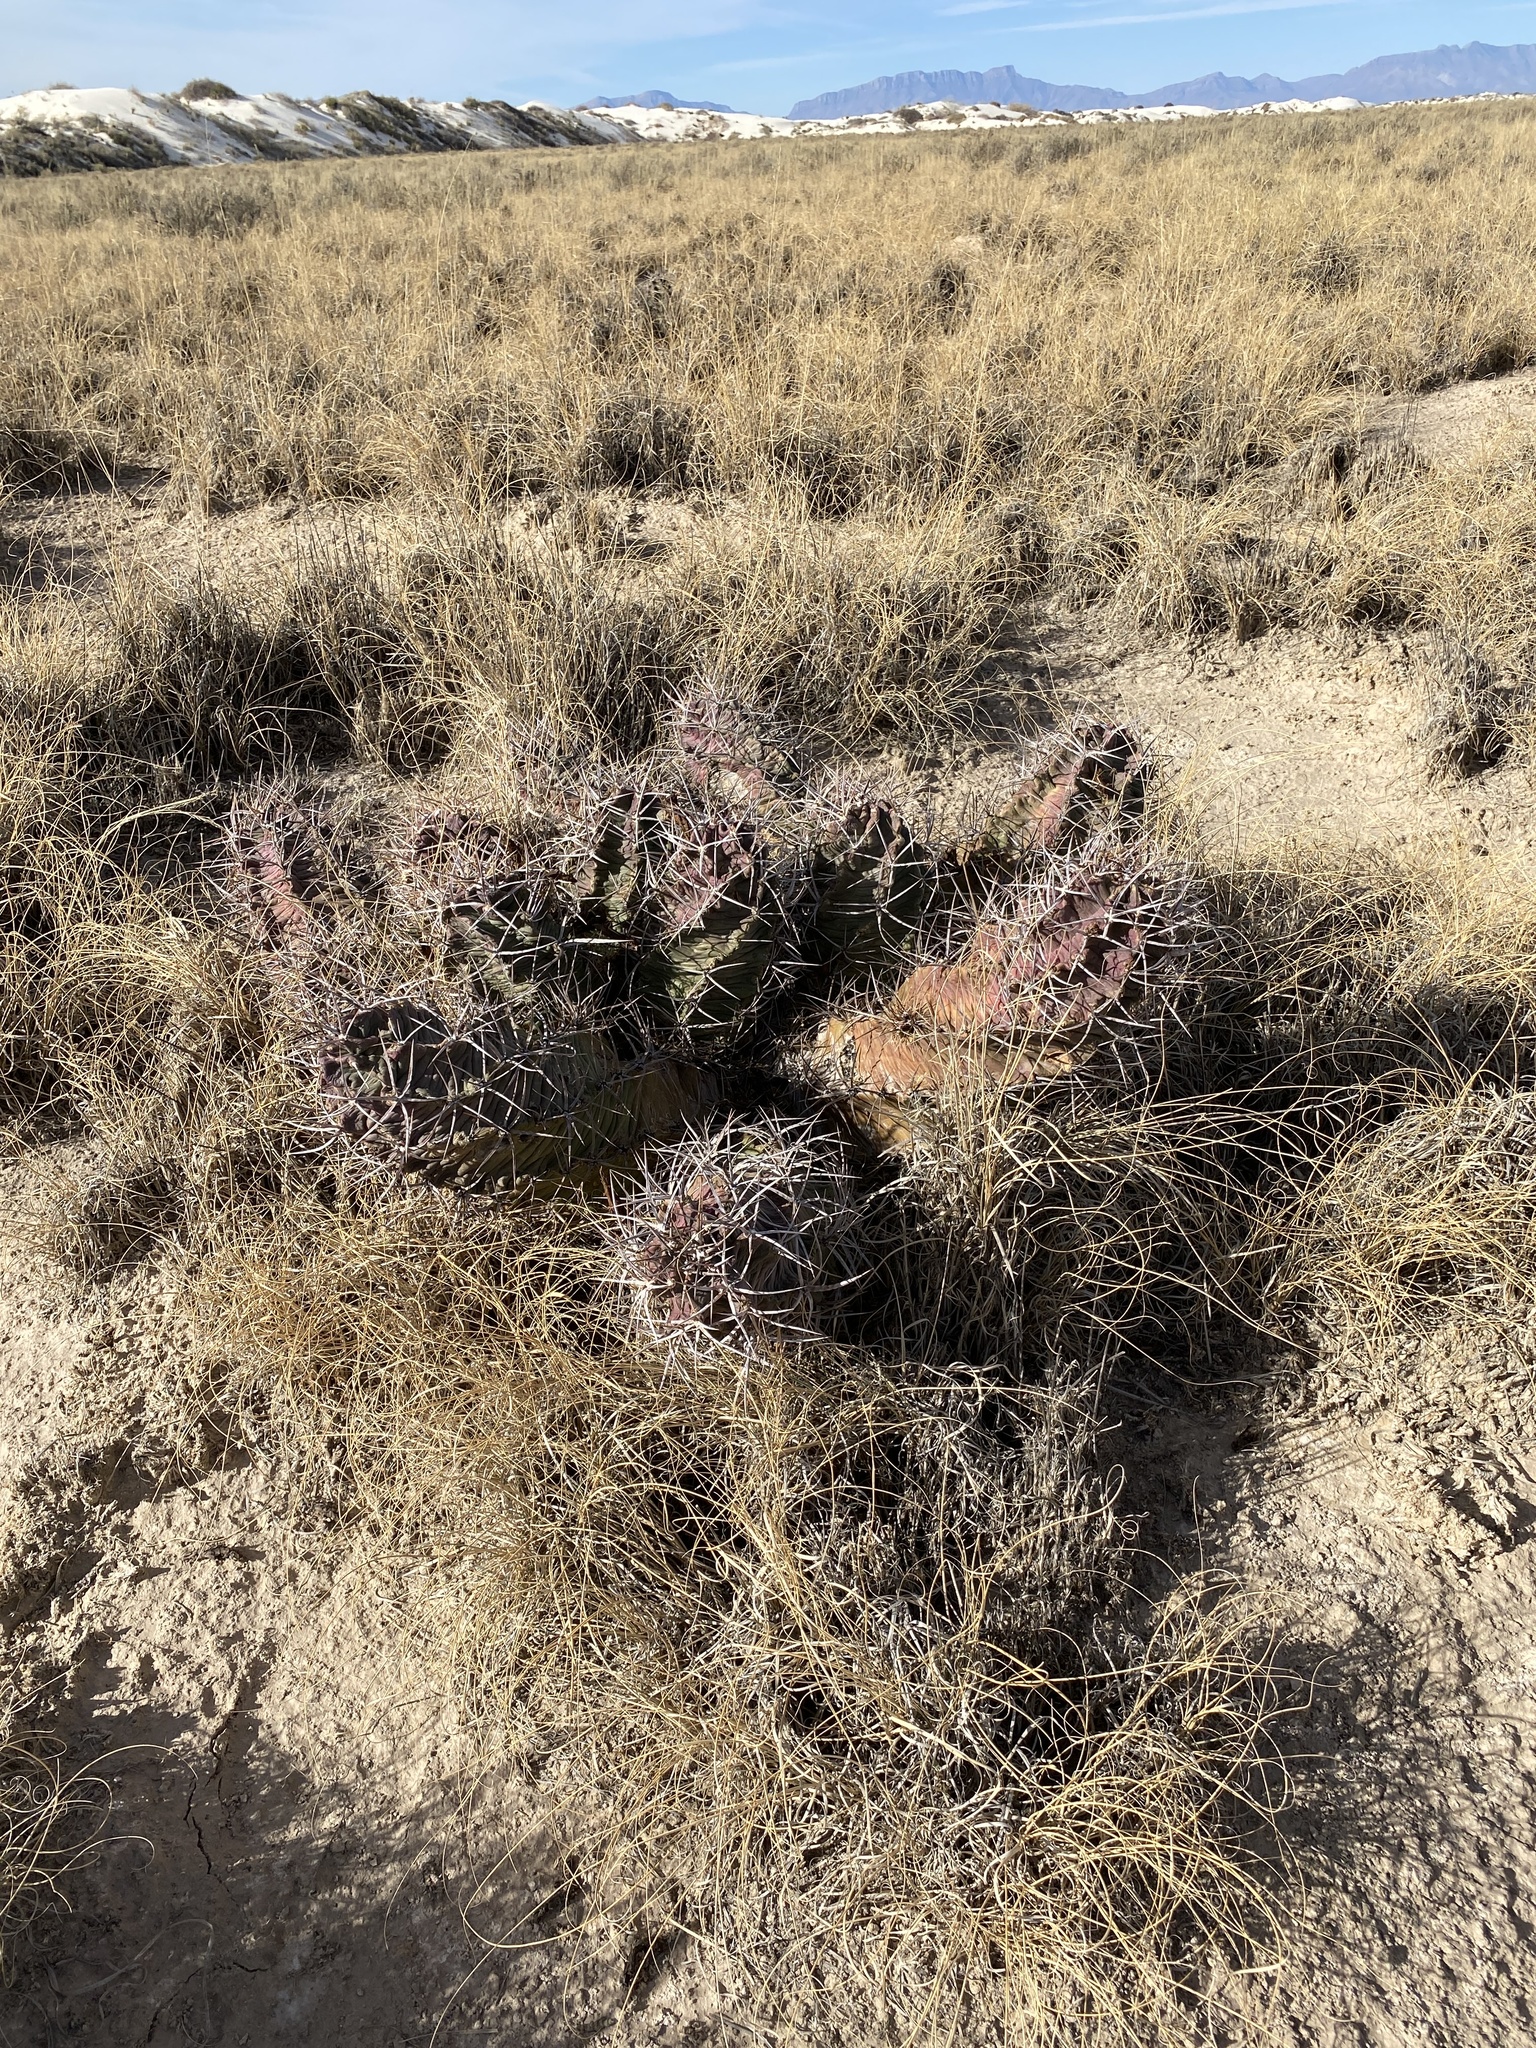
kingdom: Plantae
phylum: Tracheophyta
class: Magnoliopsida
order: Caryophyllales
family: Cactaceae
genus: Echinocereus
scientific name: Echinocereus triglochidiatus
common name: Claretcup hedgehog
